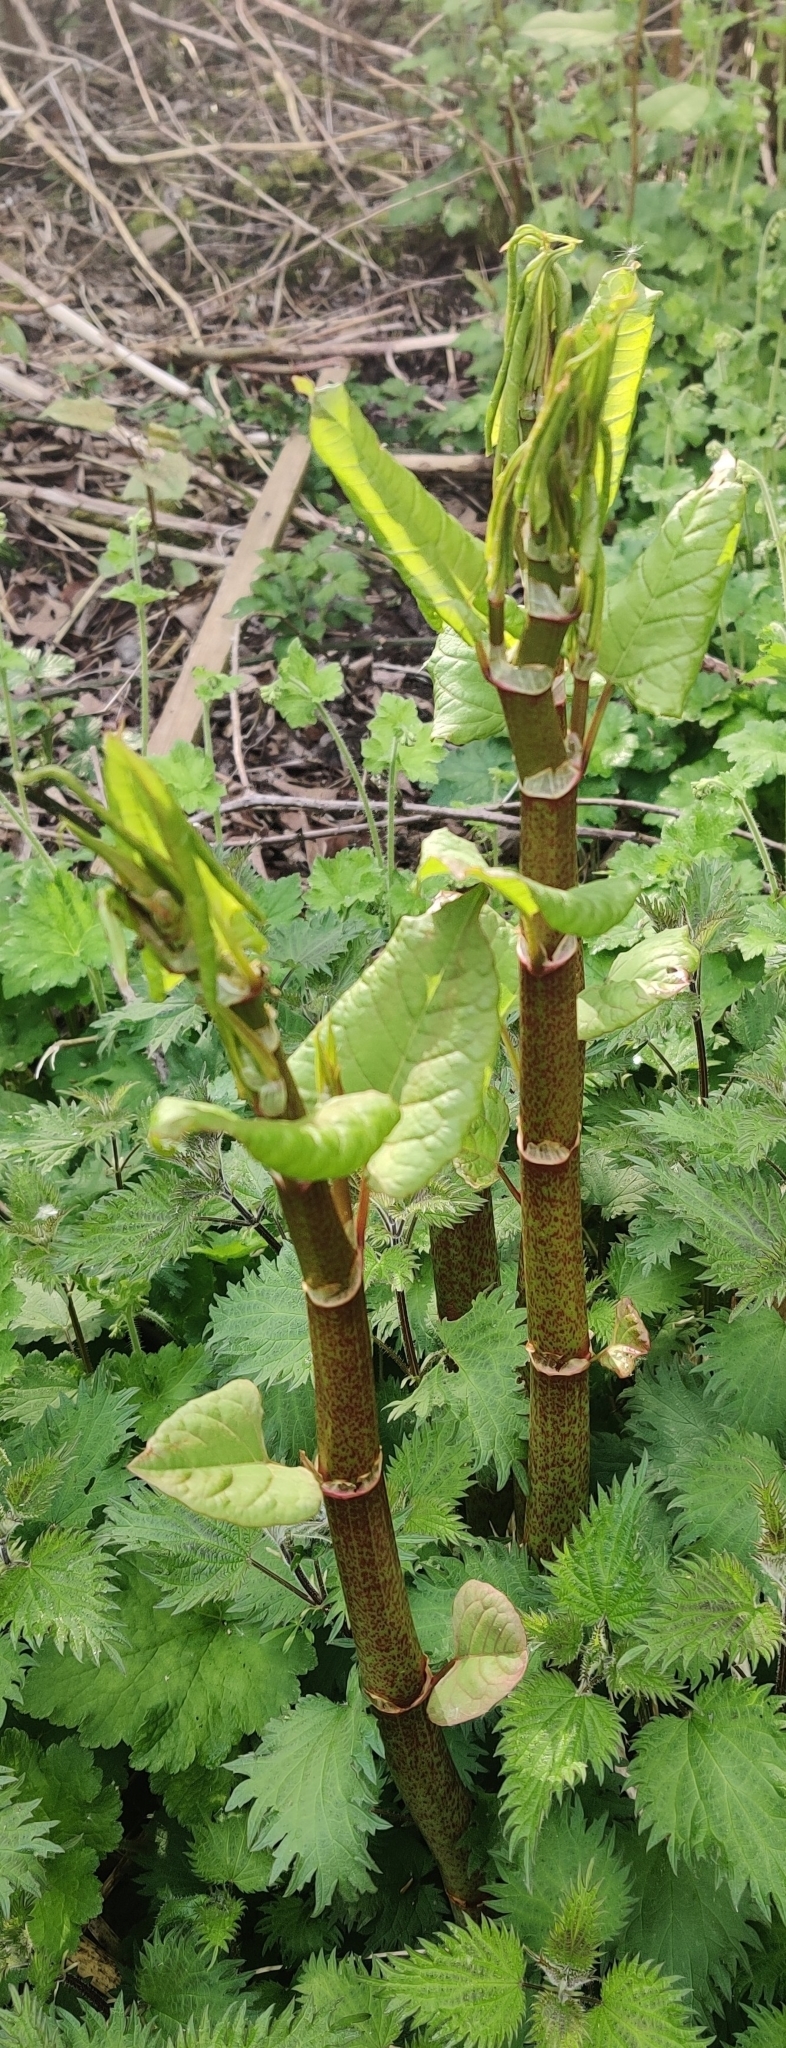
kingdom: Plantae
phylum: Tracheophyta
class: Magnoliopsida
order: Caryophyllales
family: Polygonaceae
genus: Reynoutria
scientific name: Reynoutria japonica
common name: Japanese knotweed
